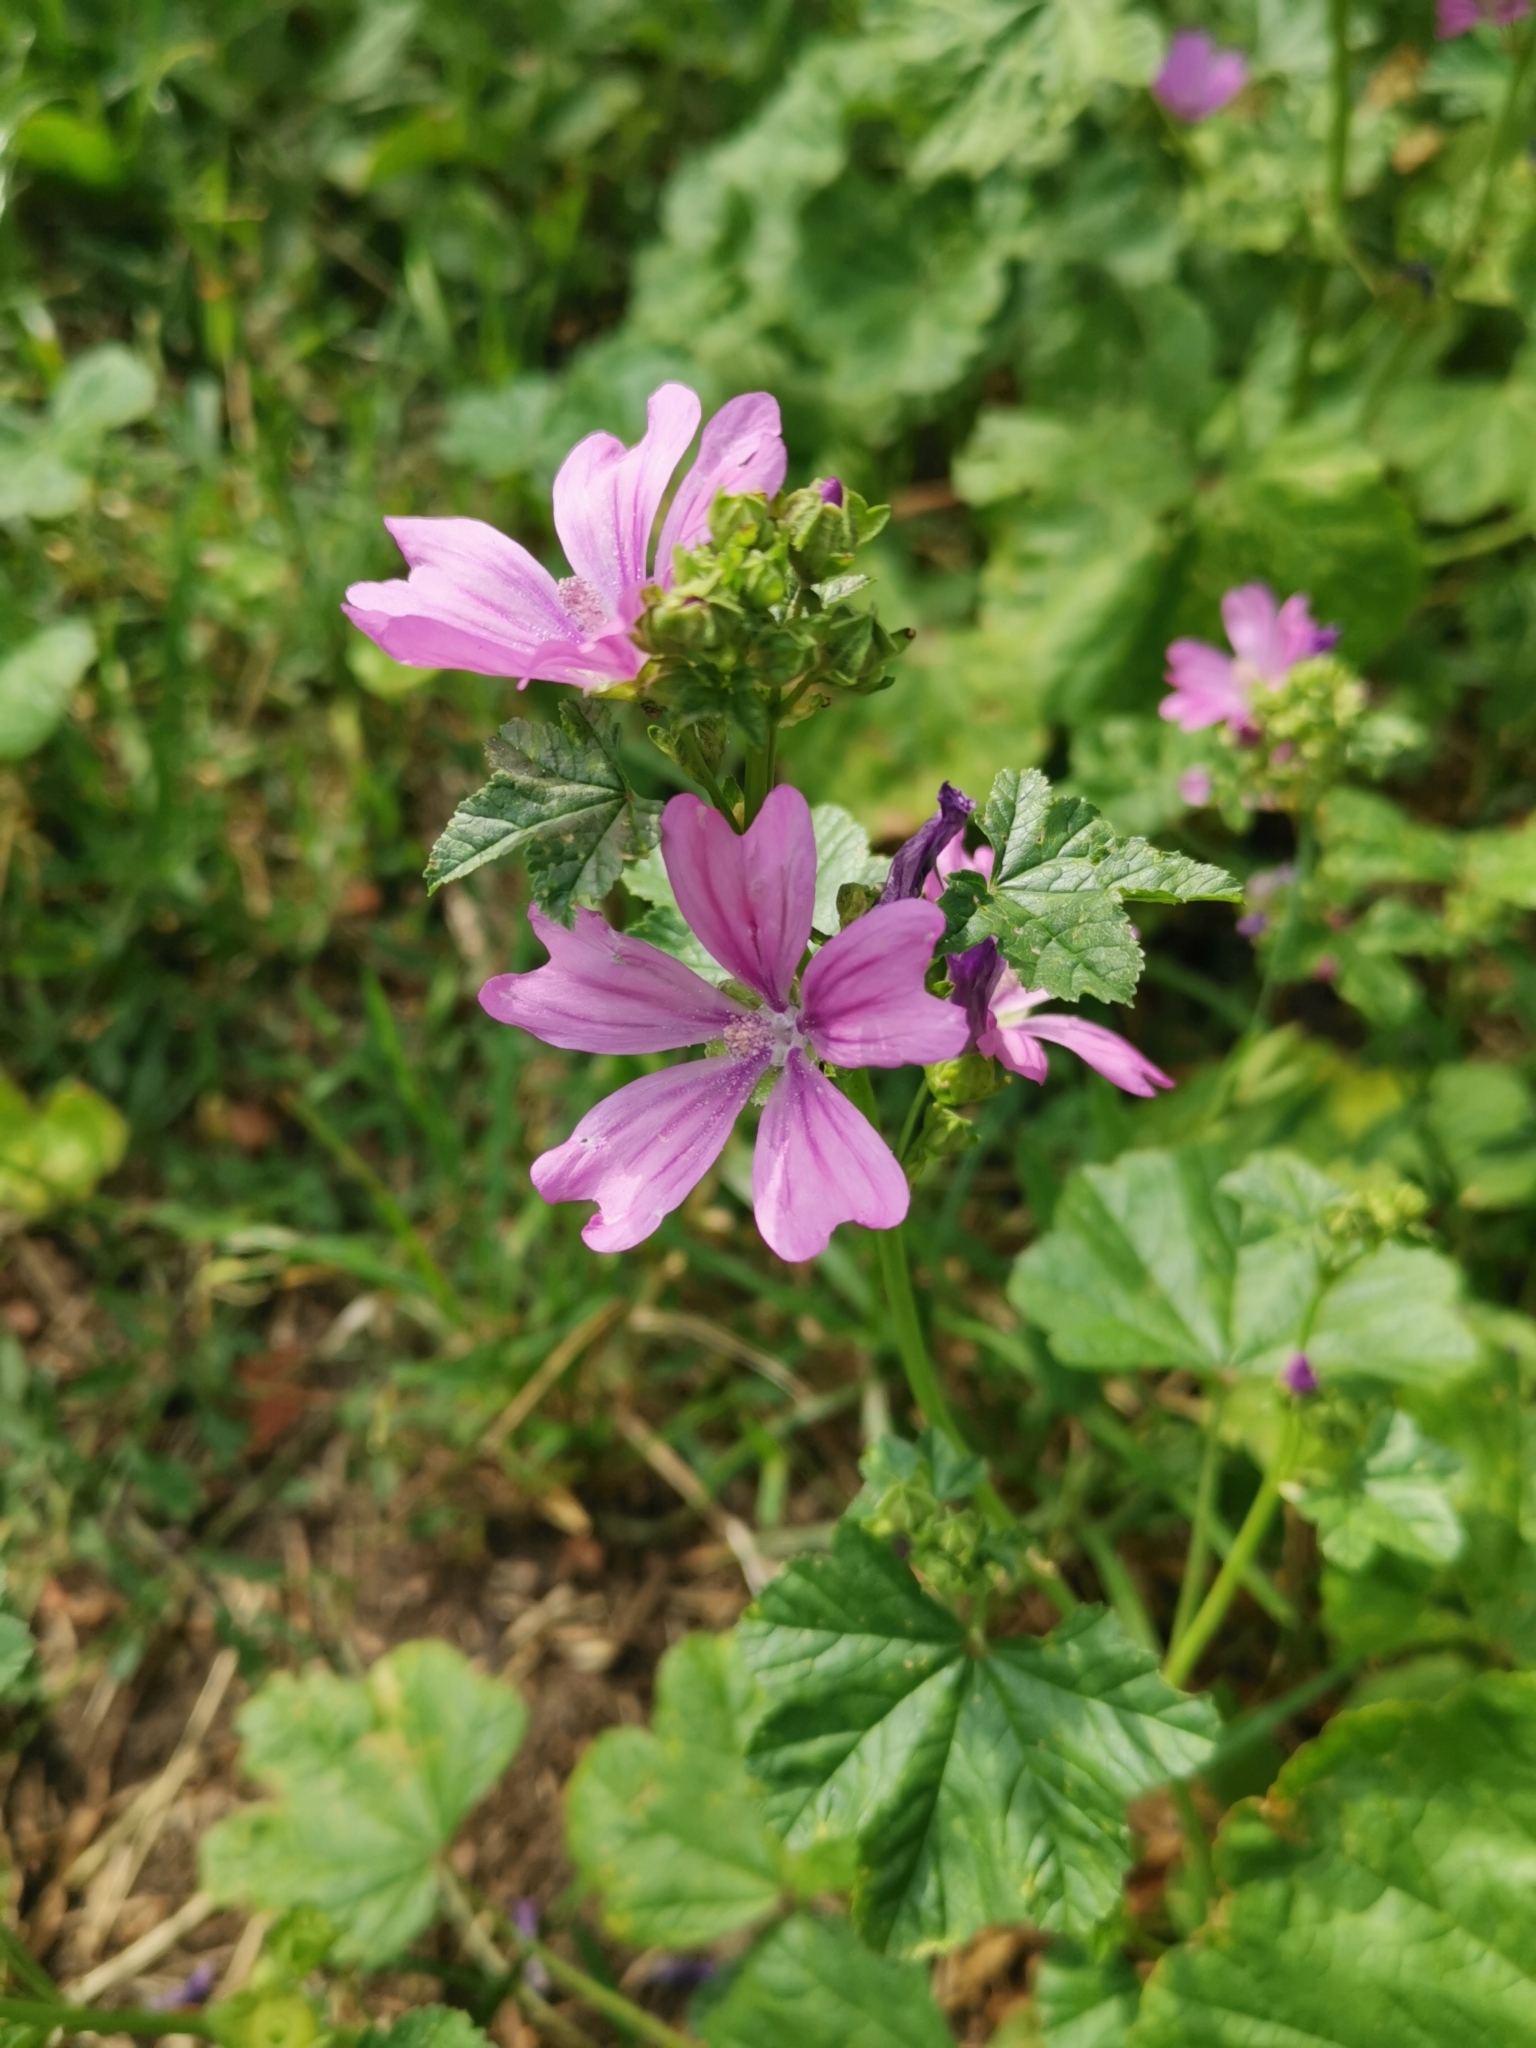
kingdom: Plantae
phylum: Tracheophyta
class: Magnoliopsida
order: Malvales
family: Malvaceae
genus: Malva
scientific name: Malva sylvestris
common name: Common mallow
